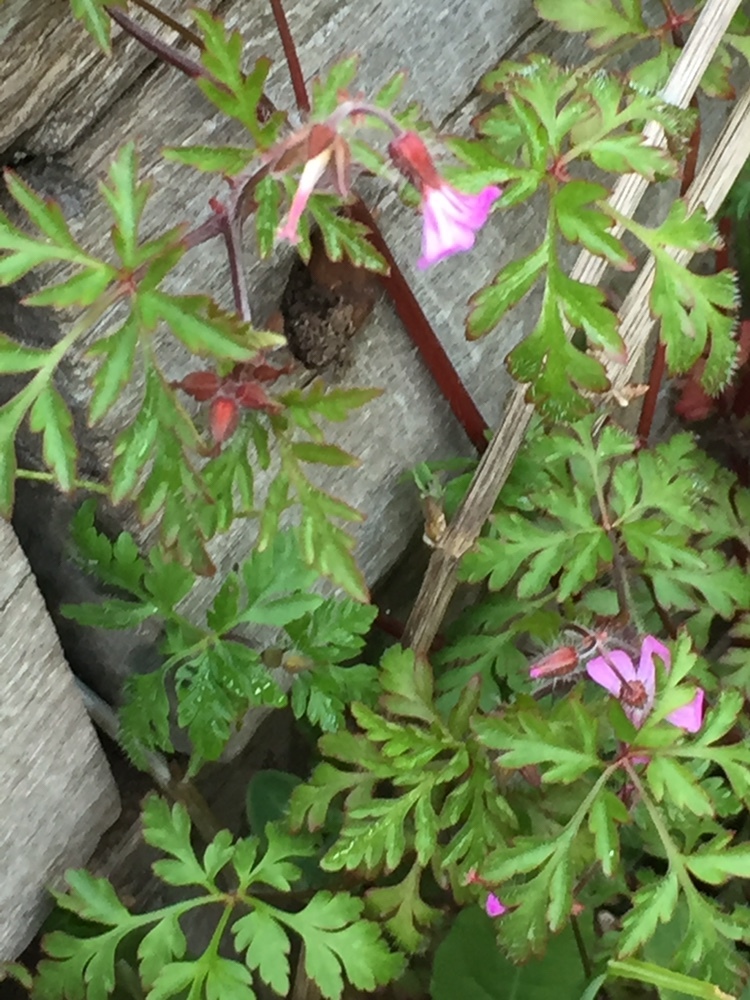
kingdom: Plantae
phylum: Tracheophyta
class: Magnoliopsida
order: Geraniales
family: Geraniaceae
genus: Geranium
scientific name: Geranium robertianum
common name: Herb-robert
